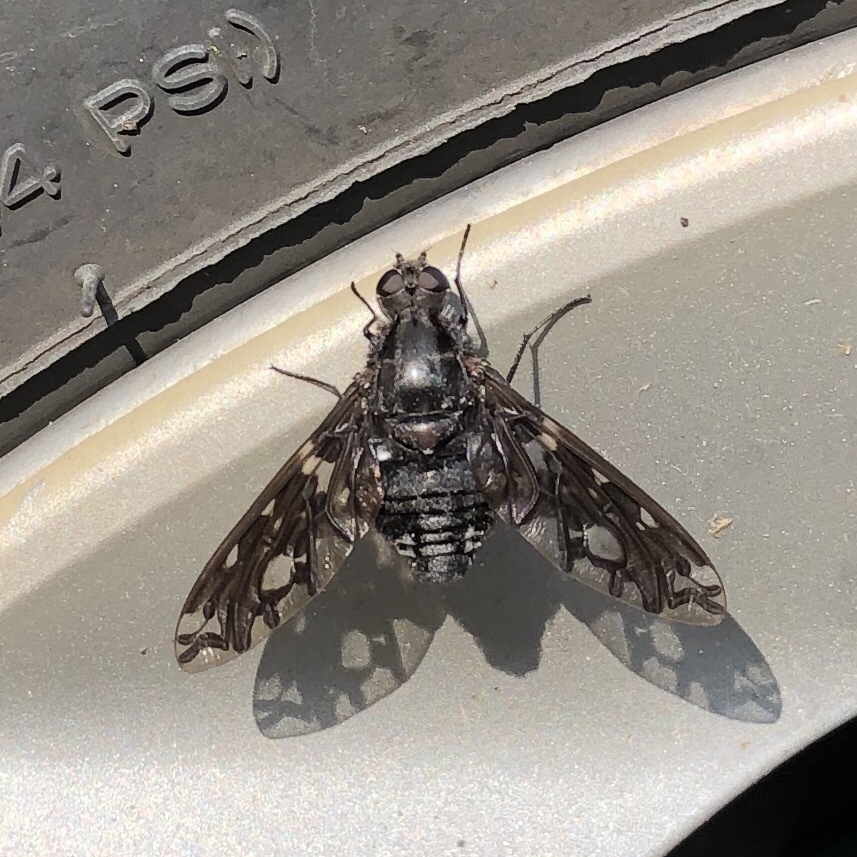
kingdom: Animalia
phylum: Arthropoda
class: Insecta
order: Diptera
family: Bombyliidae
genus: Xenox
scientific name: Xenox tigrinus
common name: Tiger bee fly
